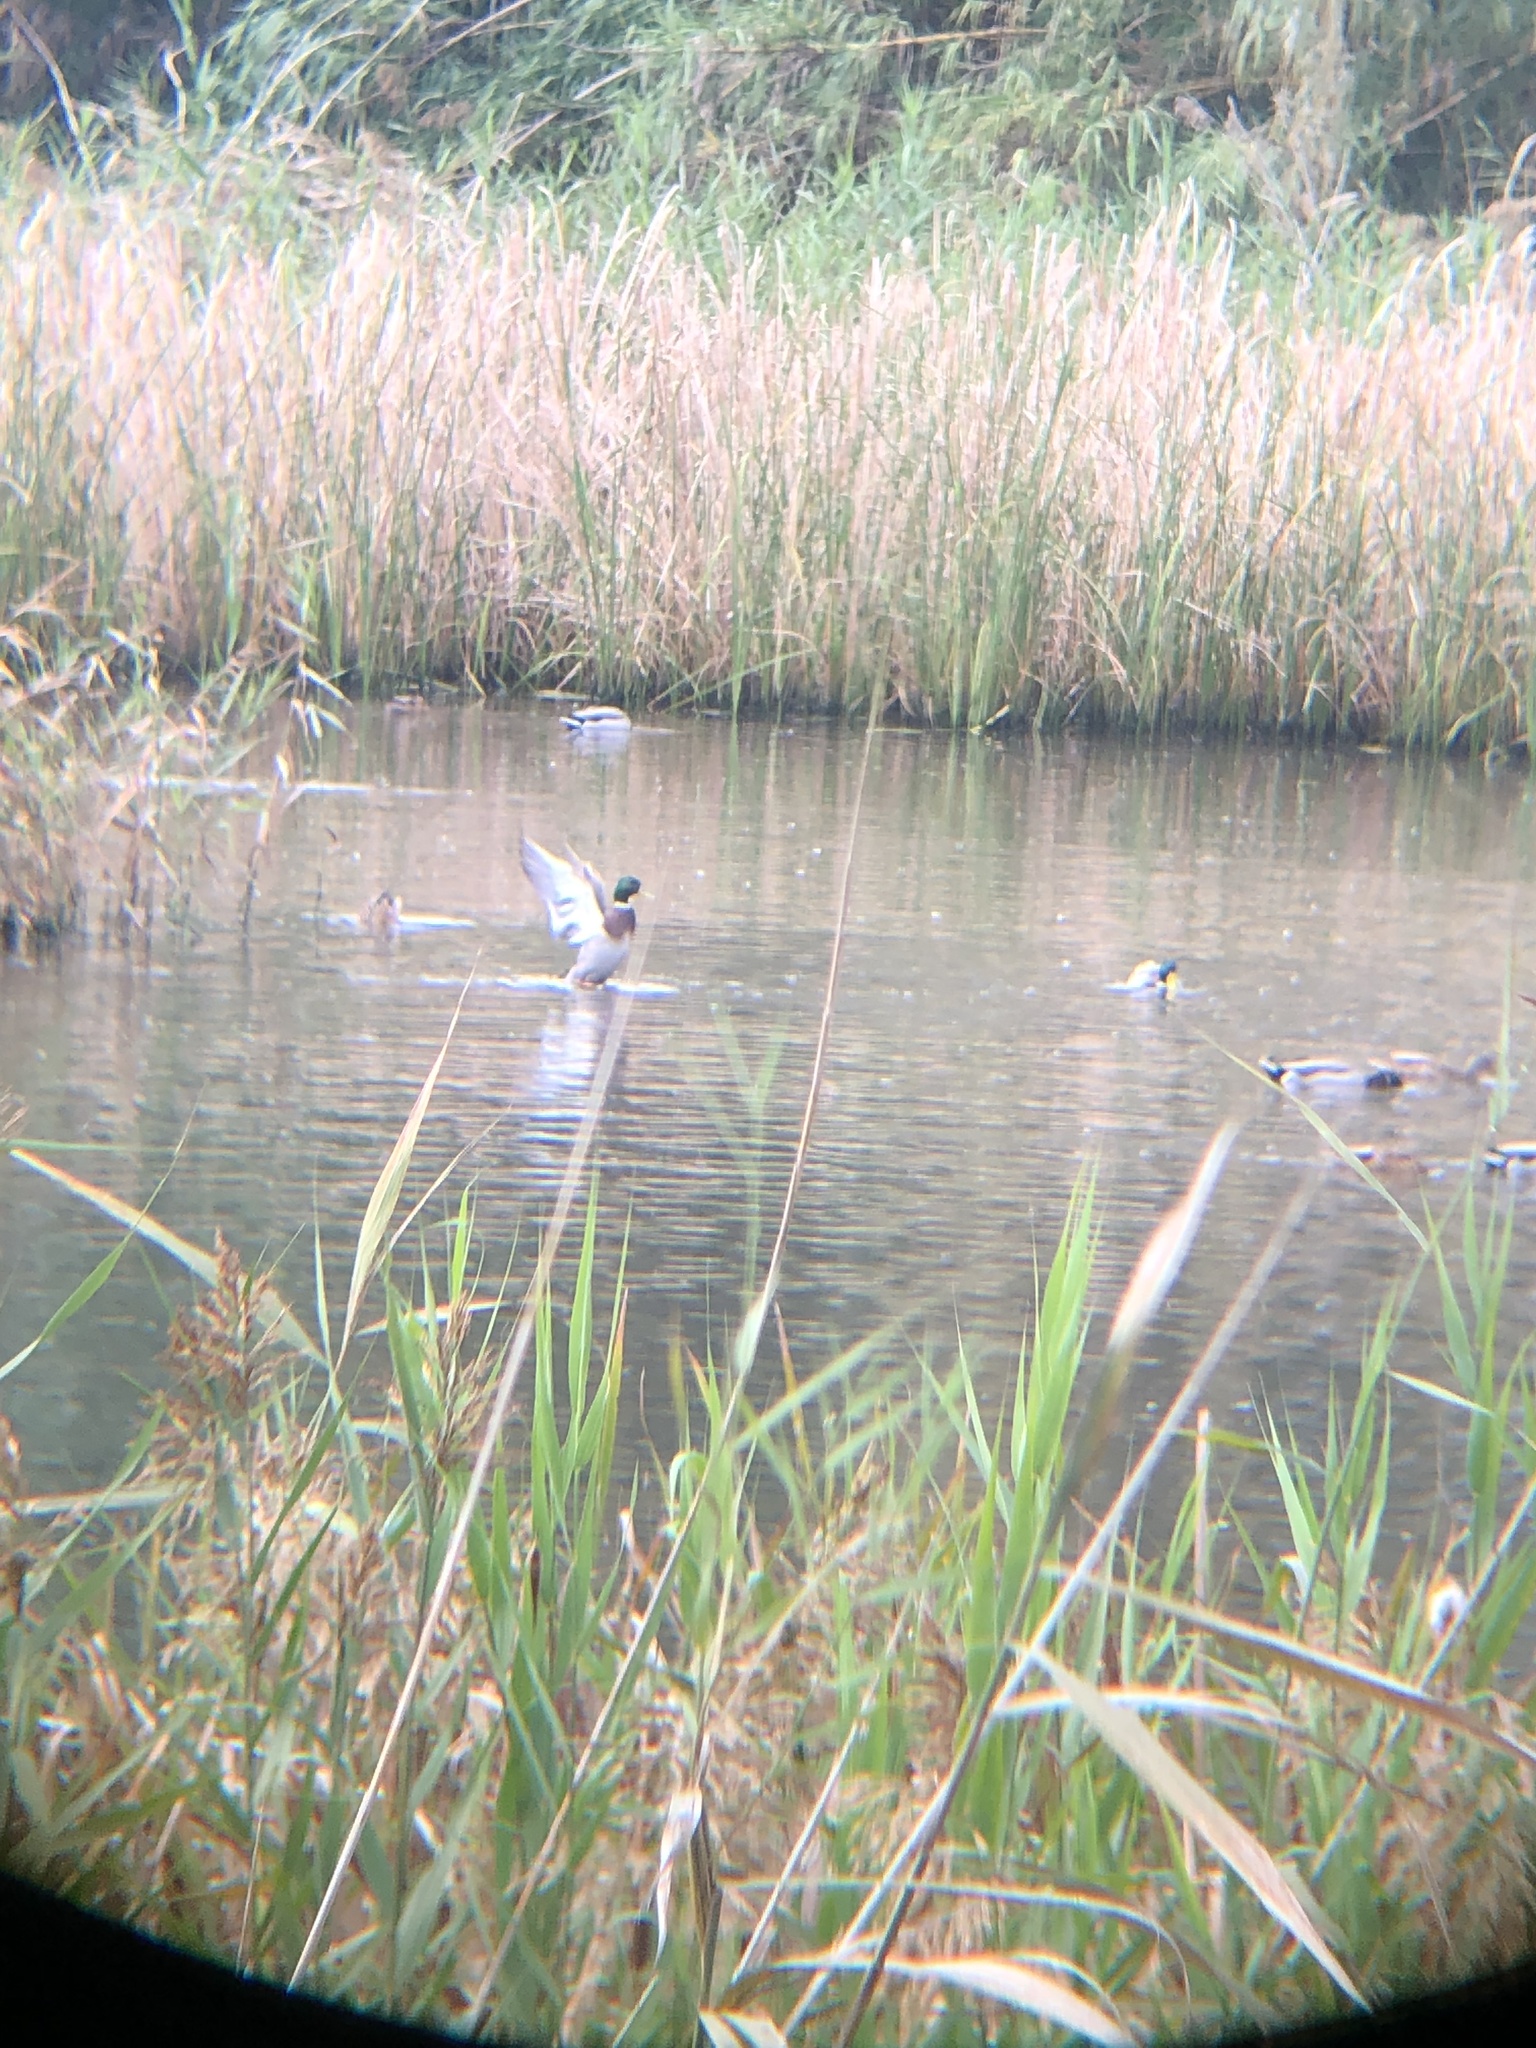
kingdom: Animalia
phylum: Chordata
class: Aves
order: Anseriformes
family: Anatidae
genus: Anas
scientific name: Anas platyrhynchos
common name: Mallard
